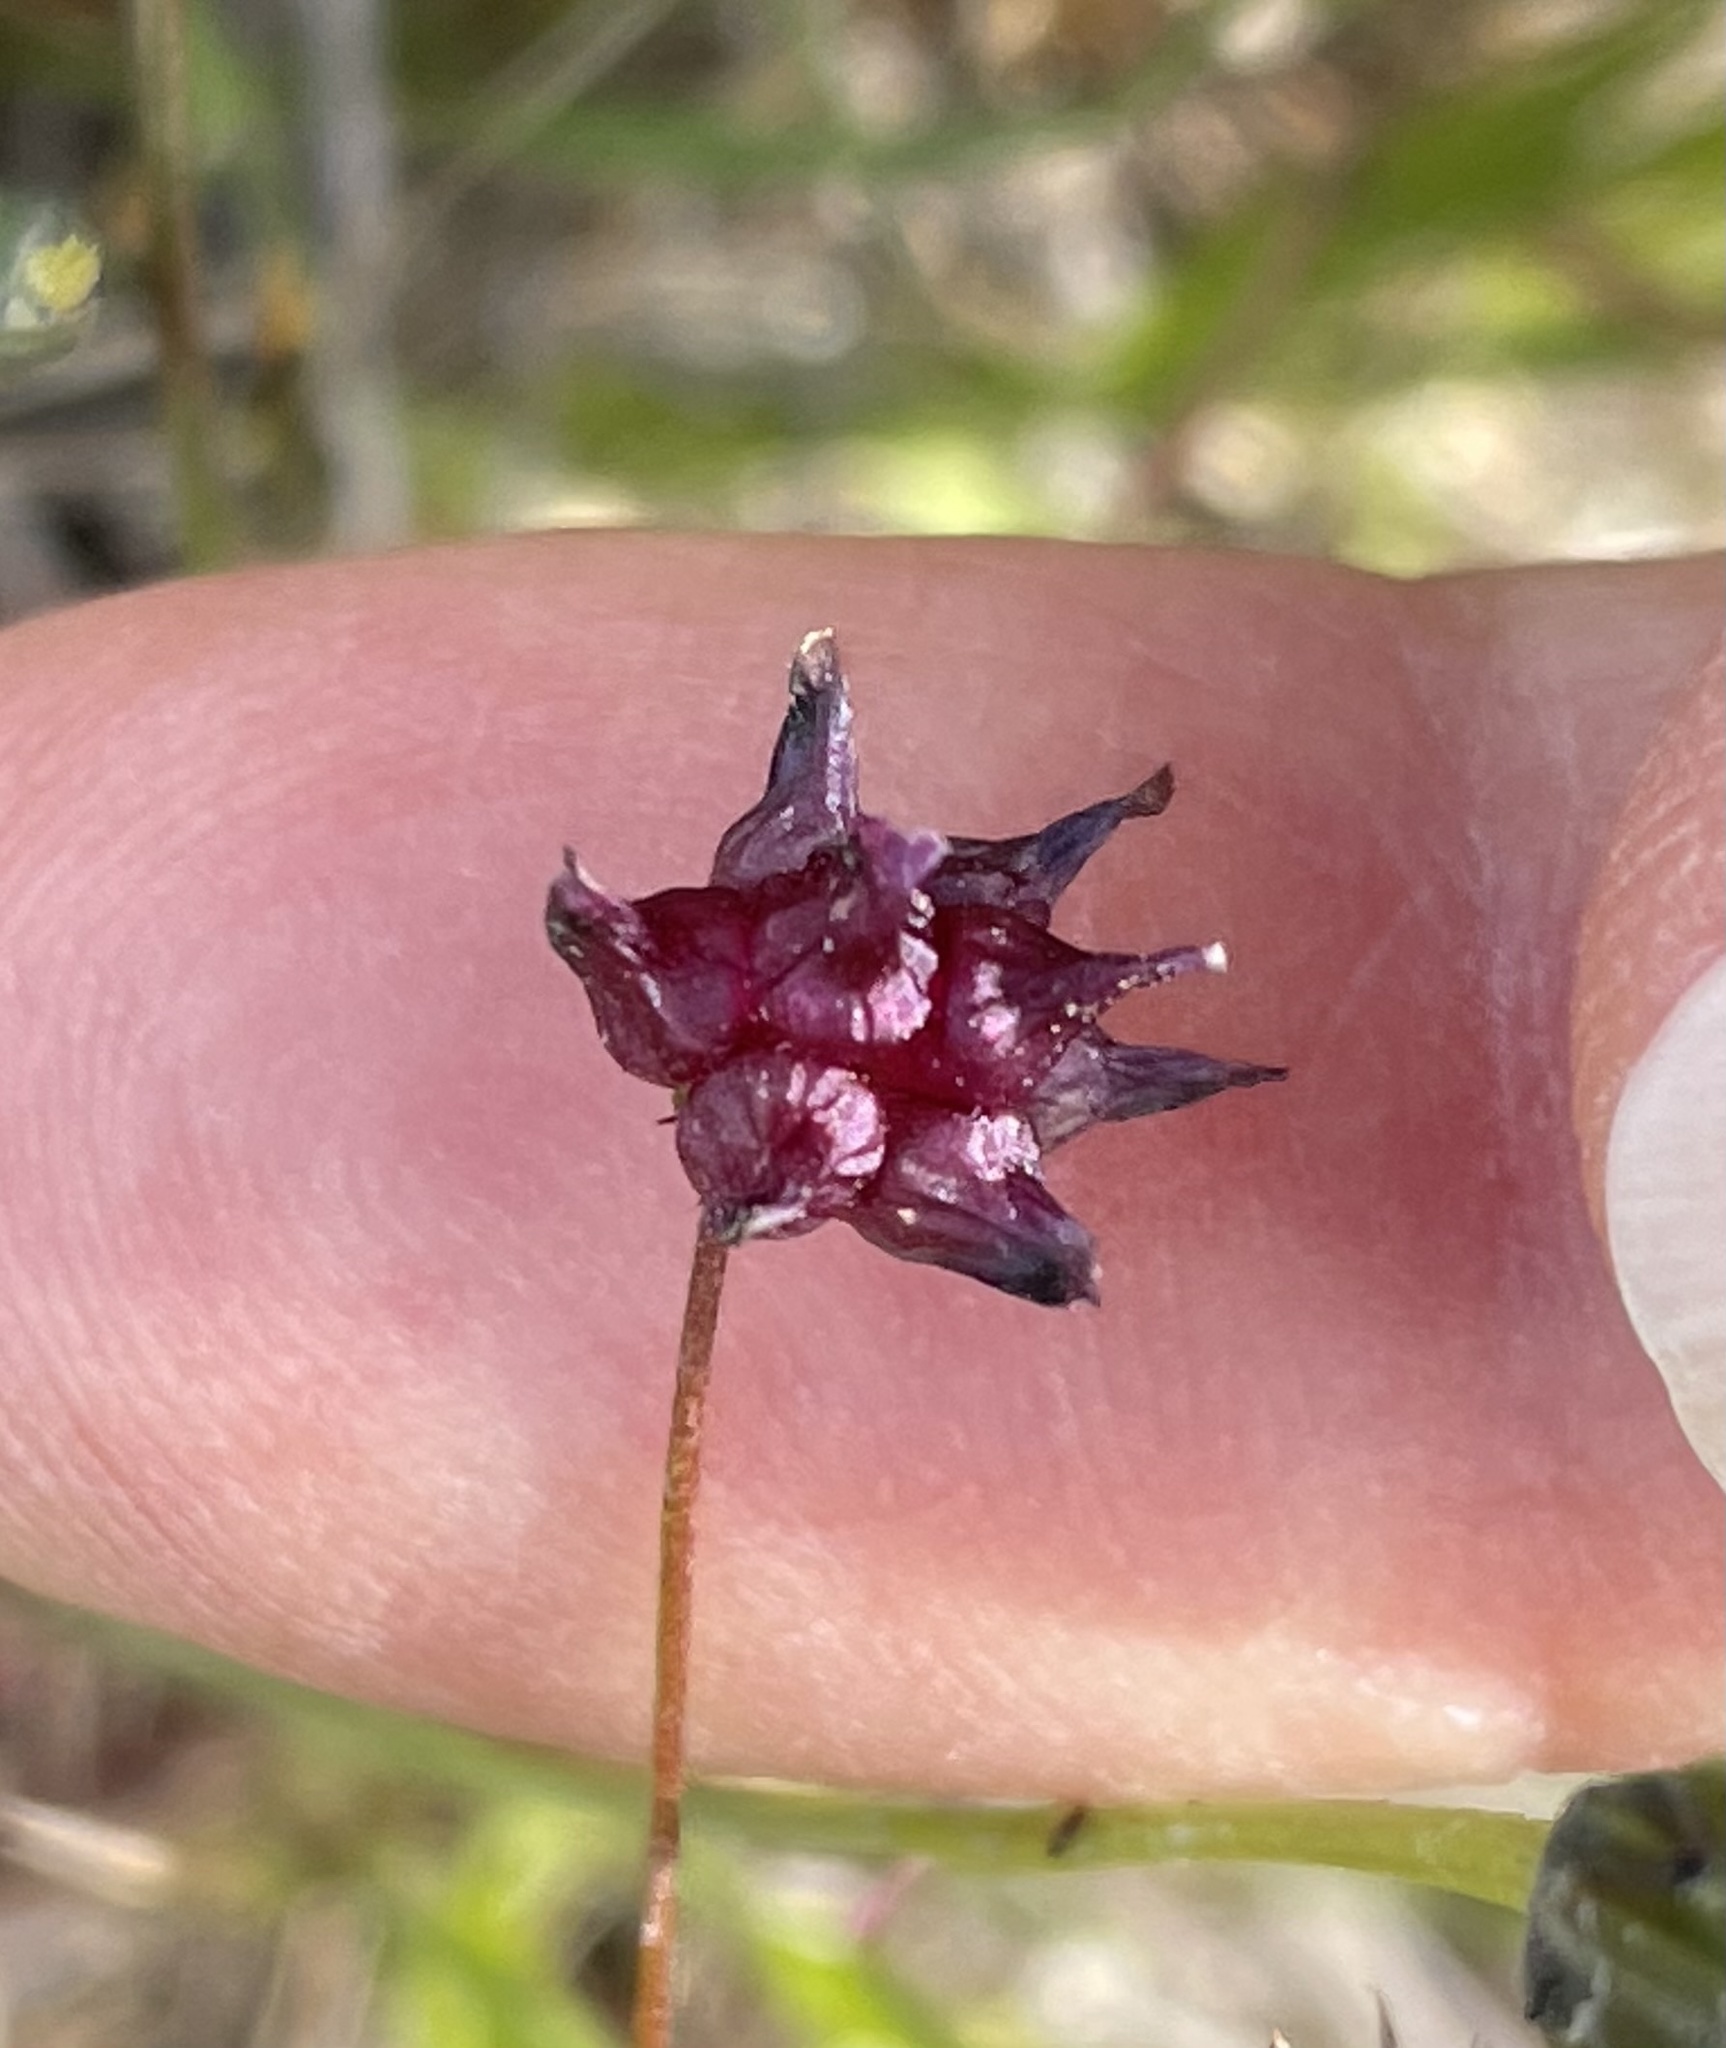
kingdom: Plantae
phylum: Tracheophyta
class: Magnoliopsida
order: Fabales
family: Fabaceae
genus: Trifolium
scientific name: Trifolium depauperatum
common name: Poverty clover
